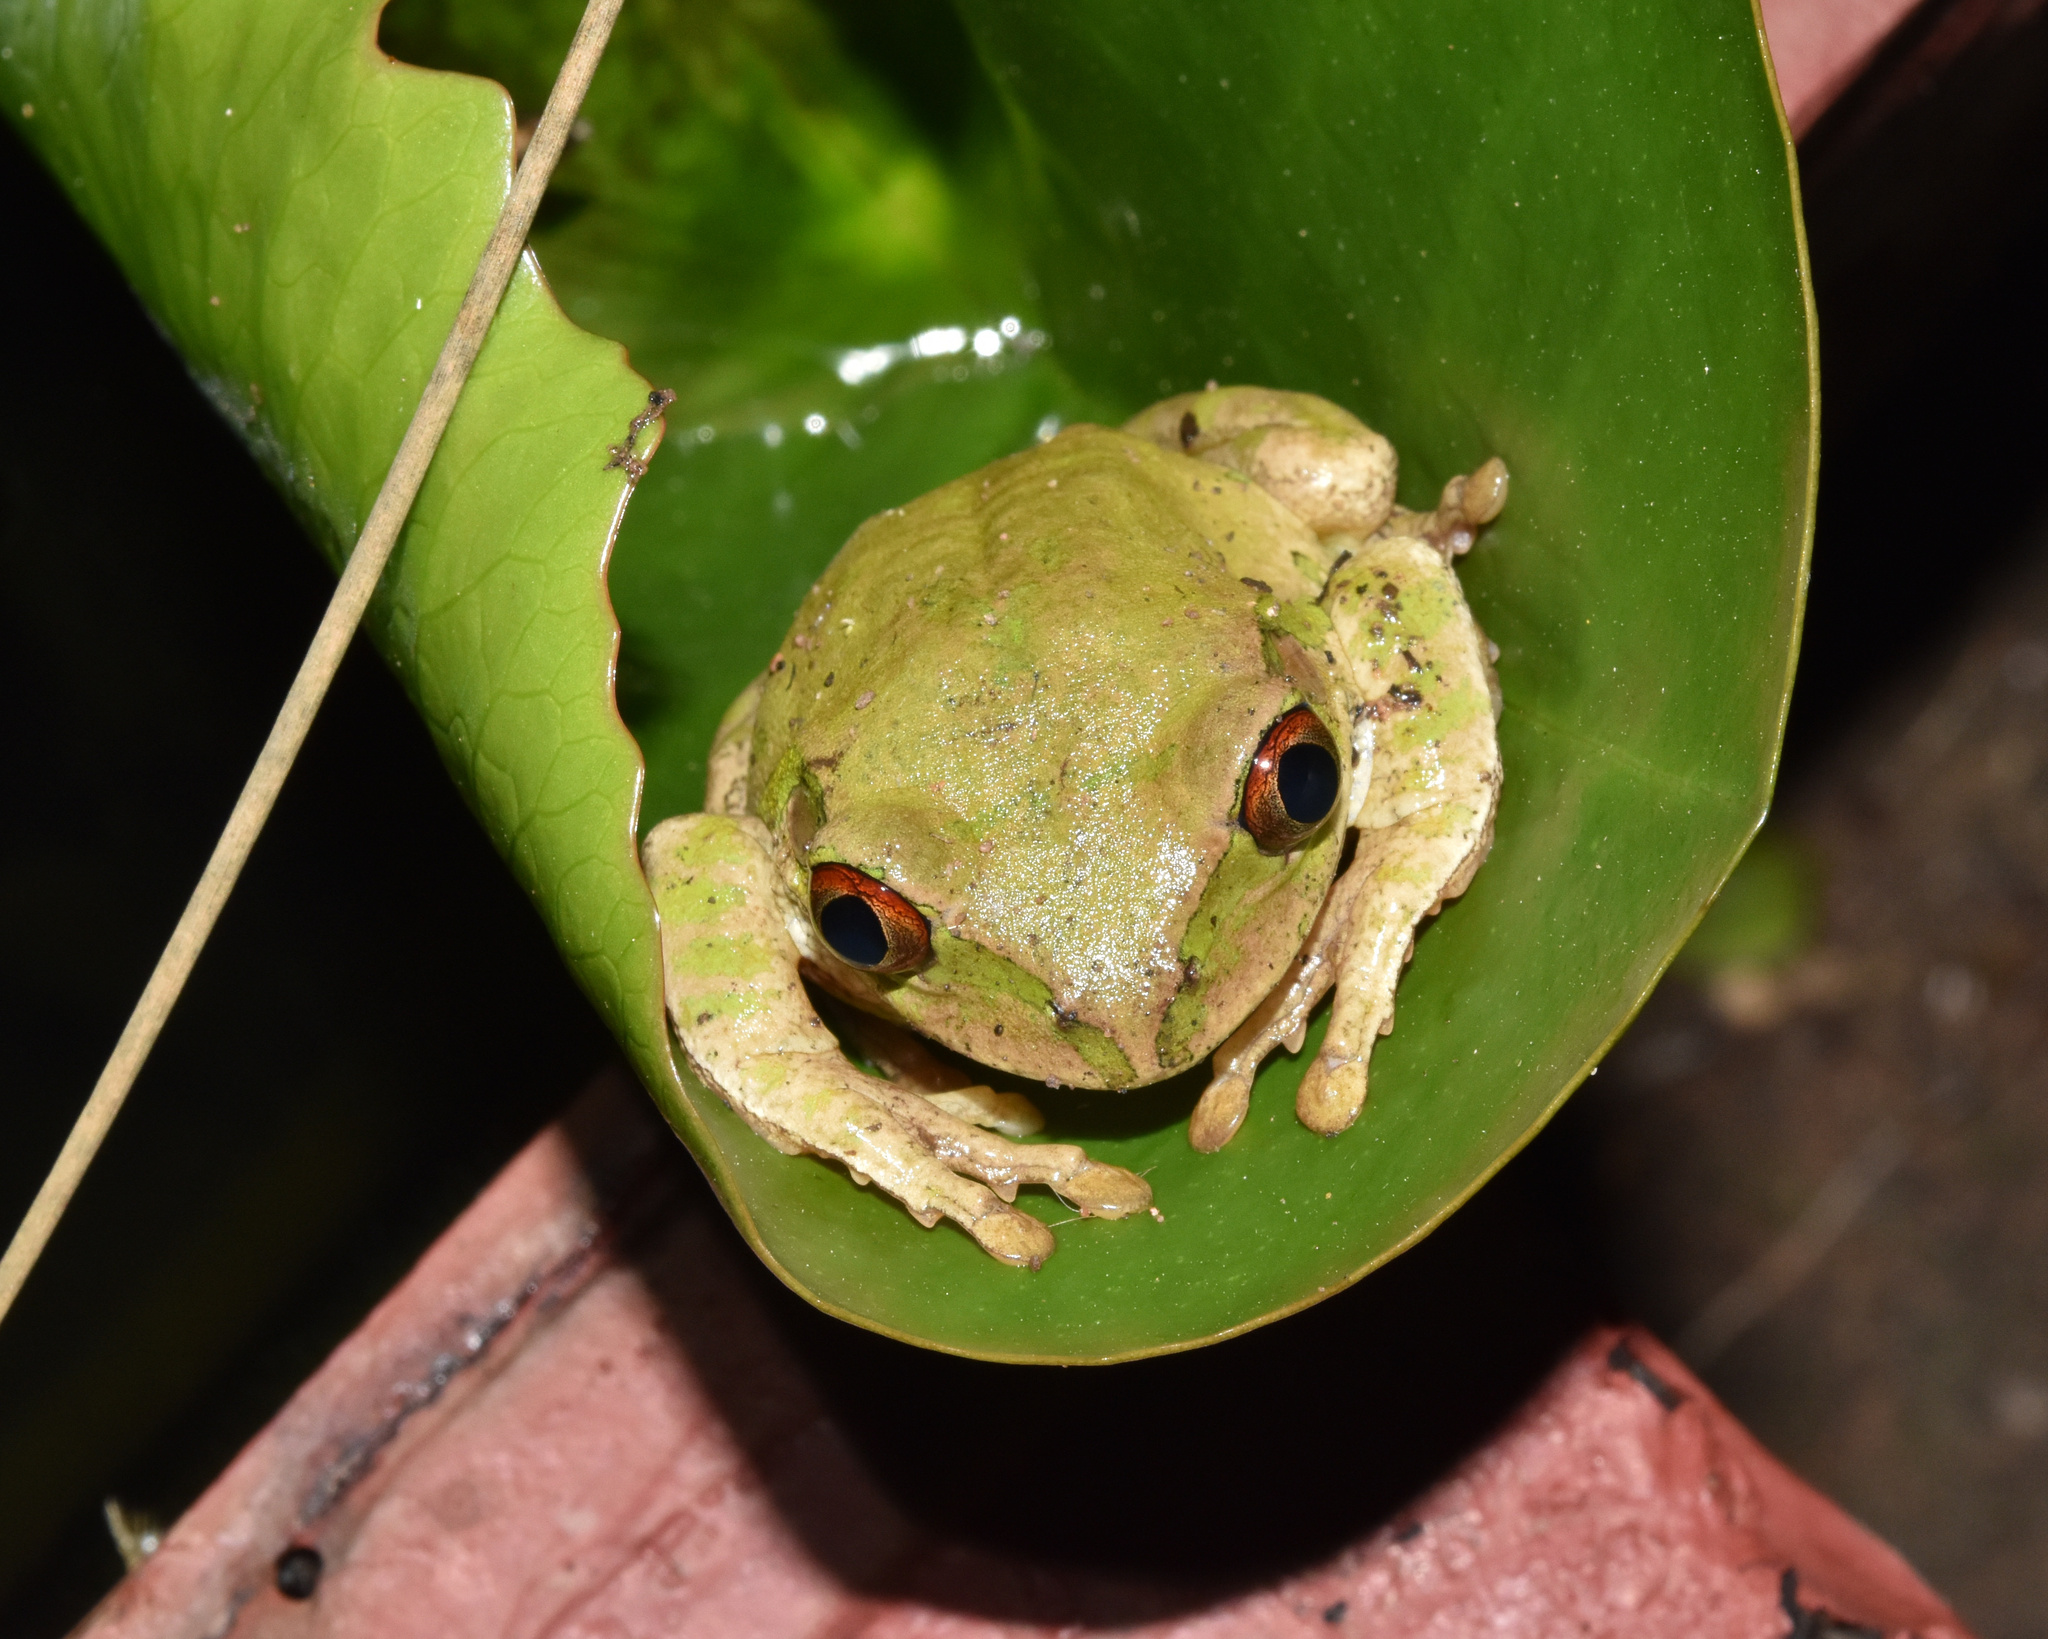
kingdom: Animalia
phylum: Chordata
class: Amphibia
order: Anura
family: Arthroleptidae
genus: Leptopelis
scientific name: Leptopelis natalensis
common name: Natal tree frog
